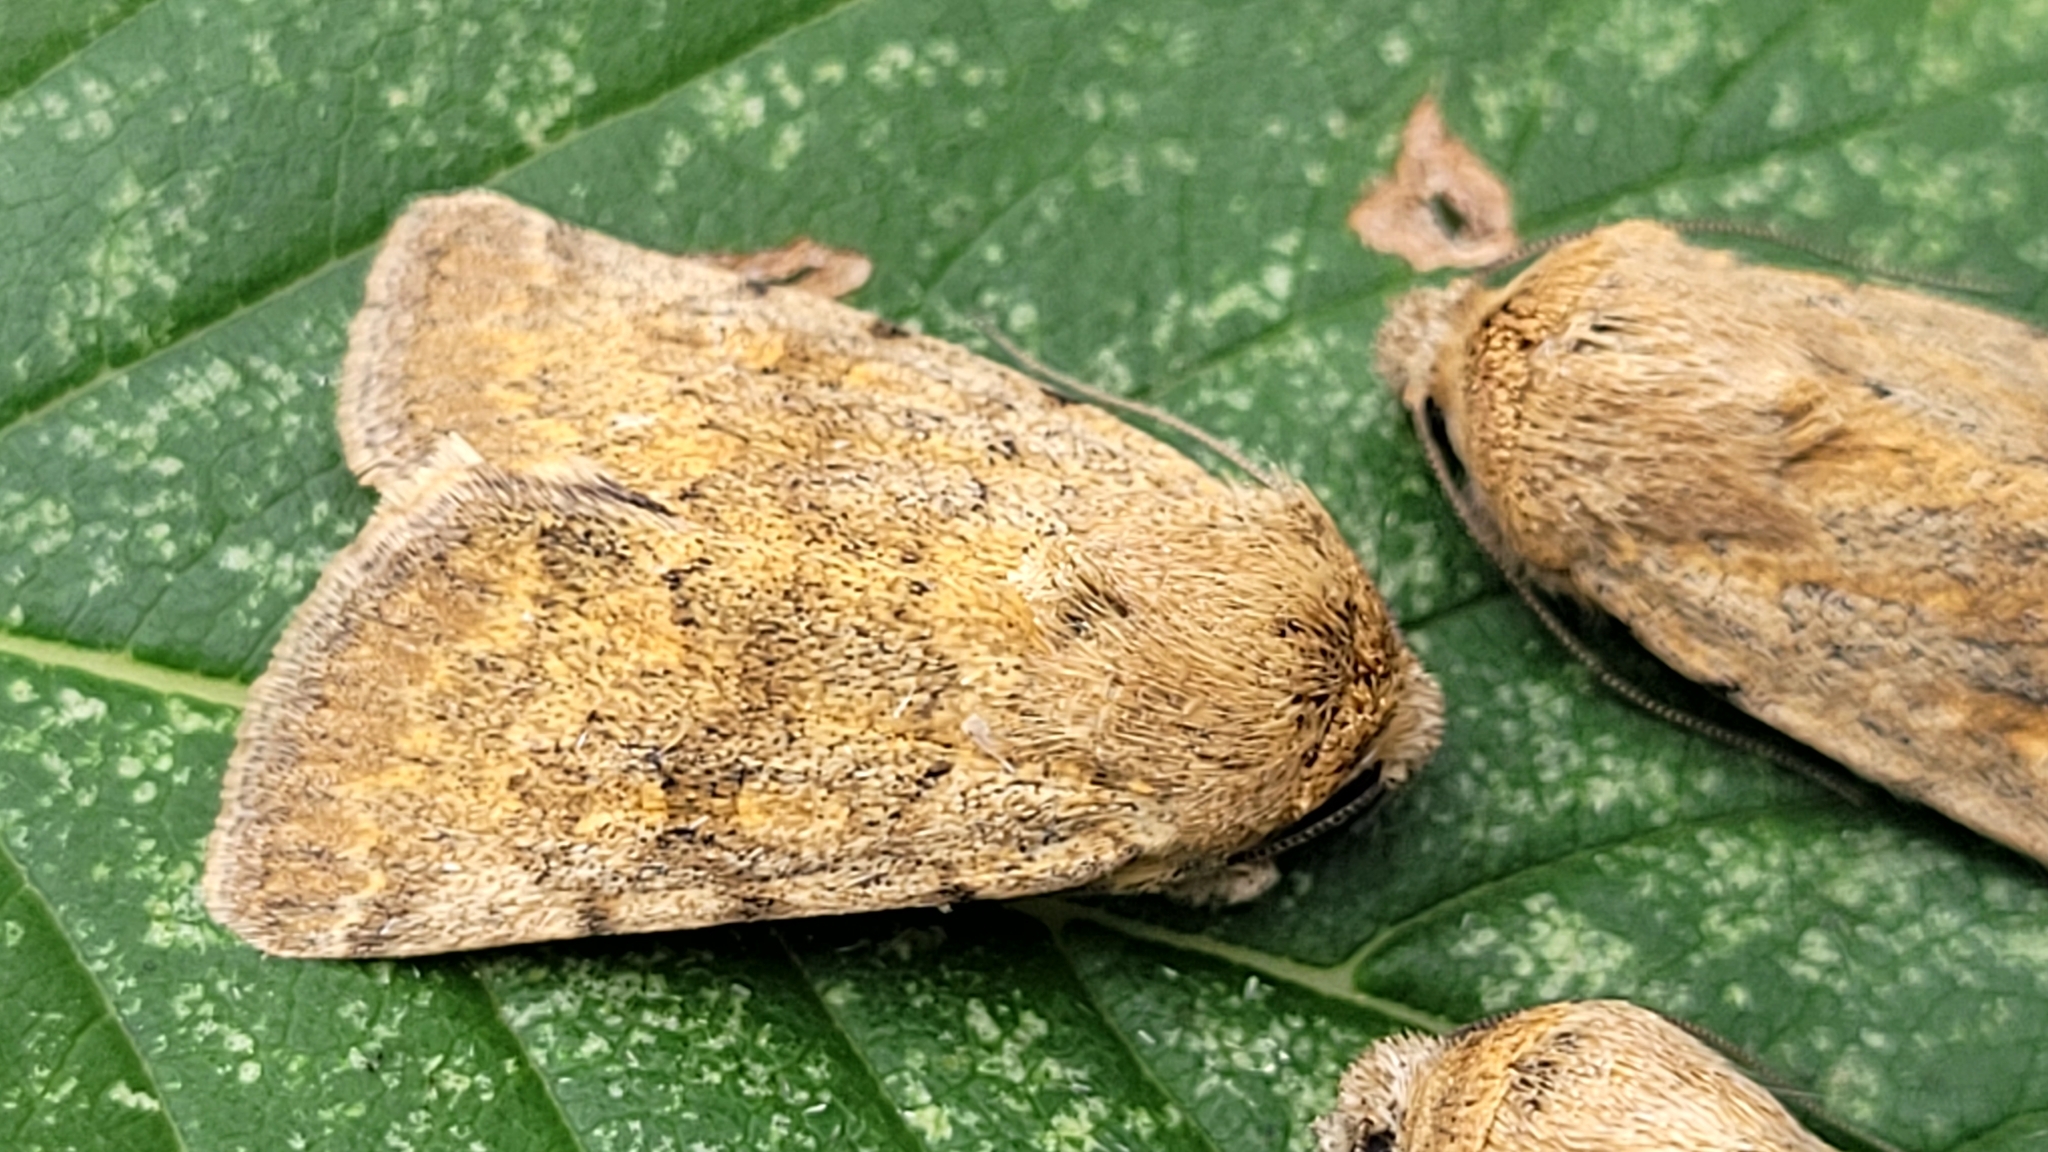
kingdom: Animalia
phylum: Arthropoda
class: Insecta
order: Lepidoptera
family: Noctuidae
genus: Sympistis
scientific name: Sympistis regina
